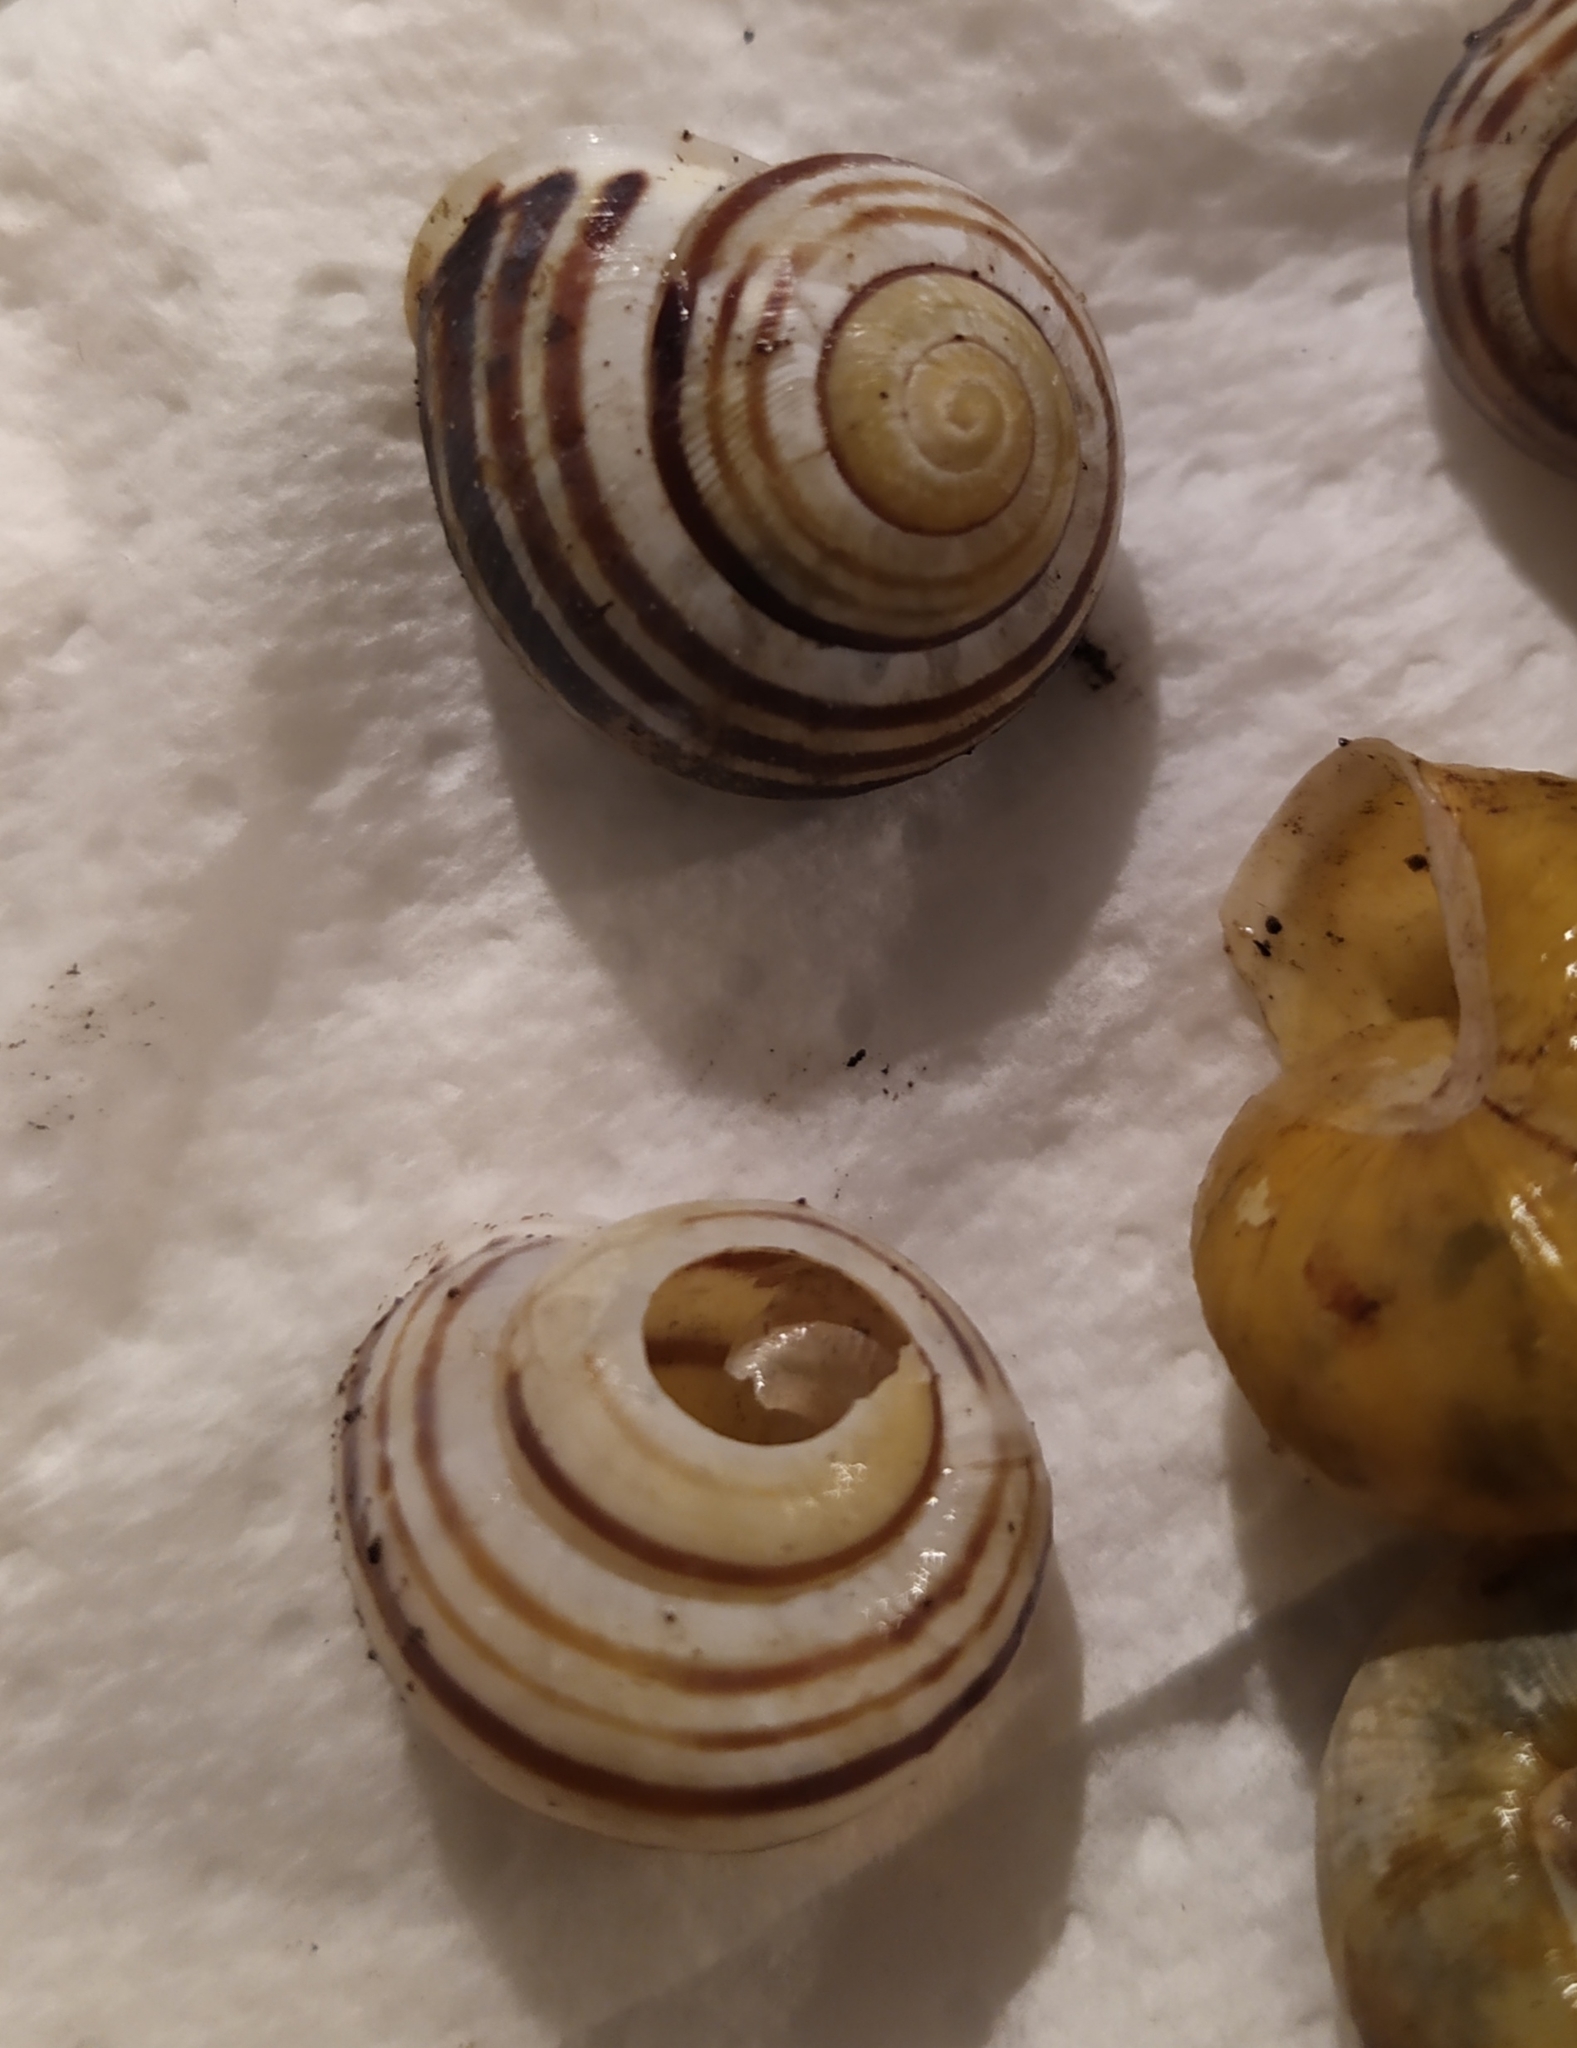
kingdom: Animalia
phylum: Mollusca
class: Gastropoda
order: Stylommatophora
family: Helicidae
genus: Cepaea
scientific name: Cepaea hortensis
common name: White-lip gardensnail
